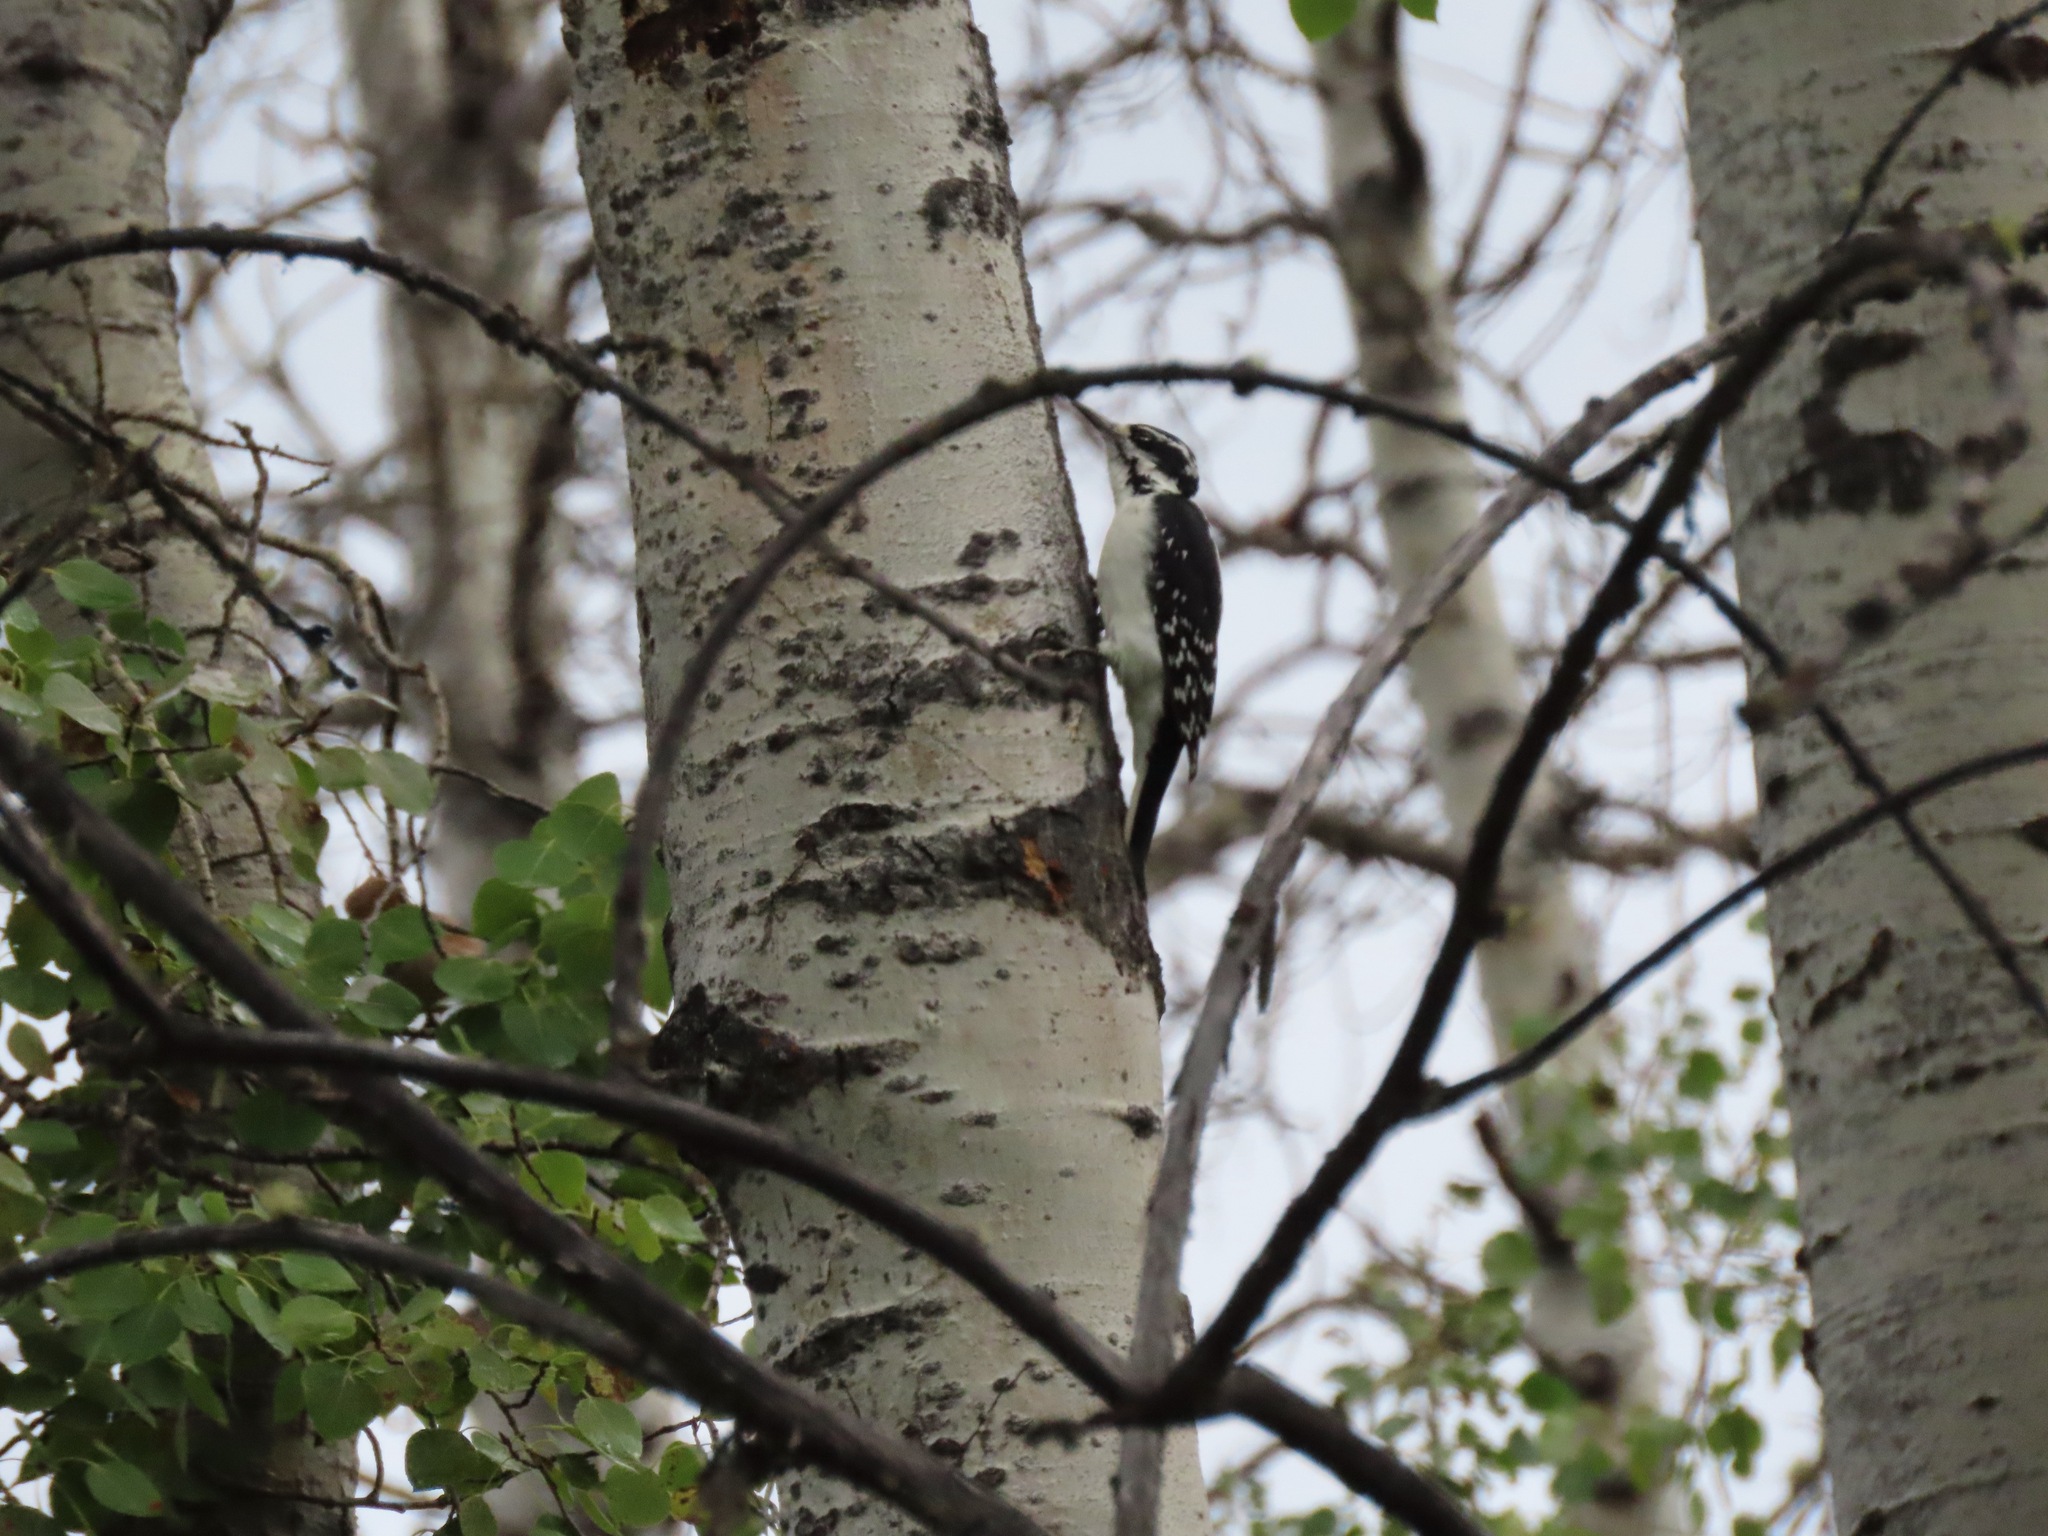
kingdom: Animalia
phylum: Chordata
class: Aves
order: Piciformes
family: Picidae
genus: Leuconotopicus
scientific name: Leuconotopicus villosus
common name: Hairy woodpecker
